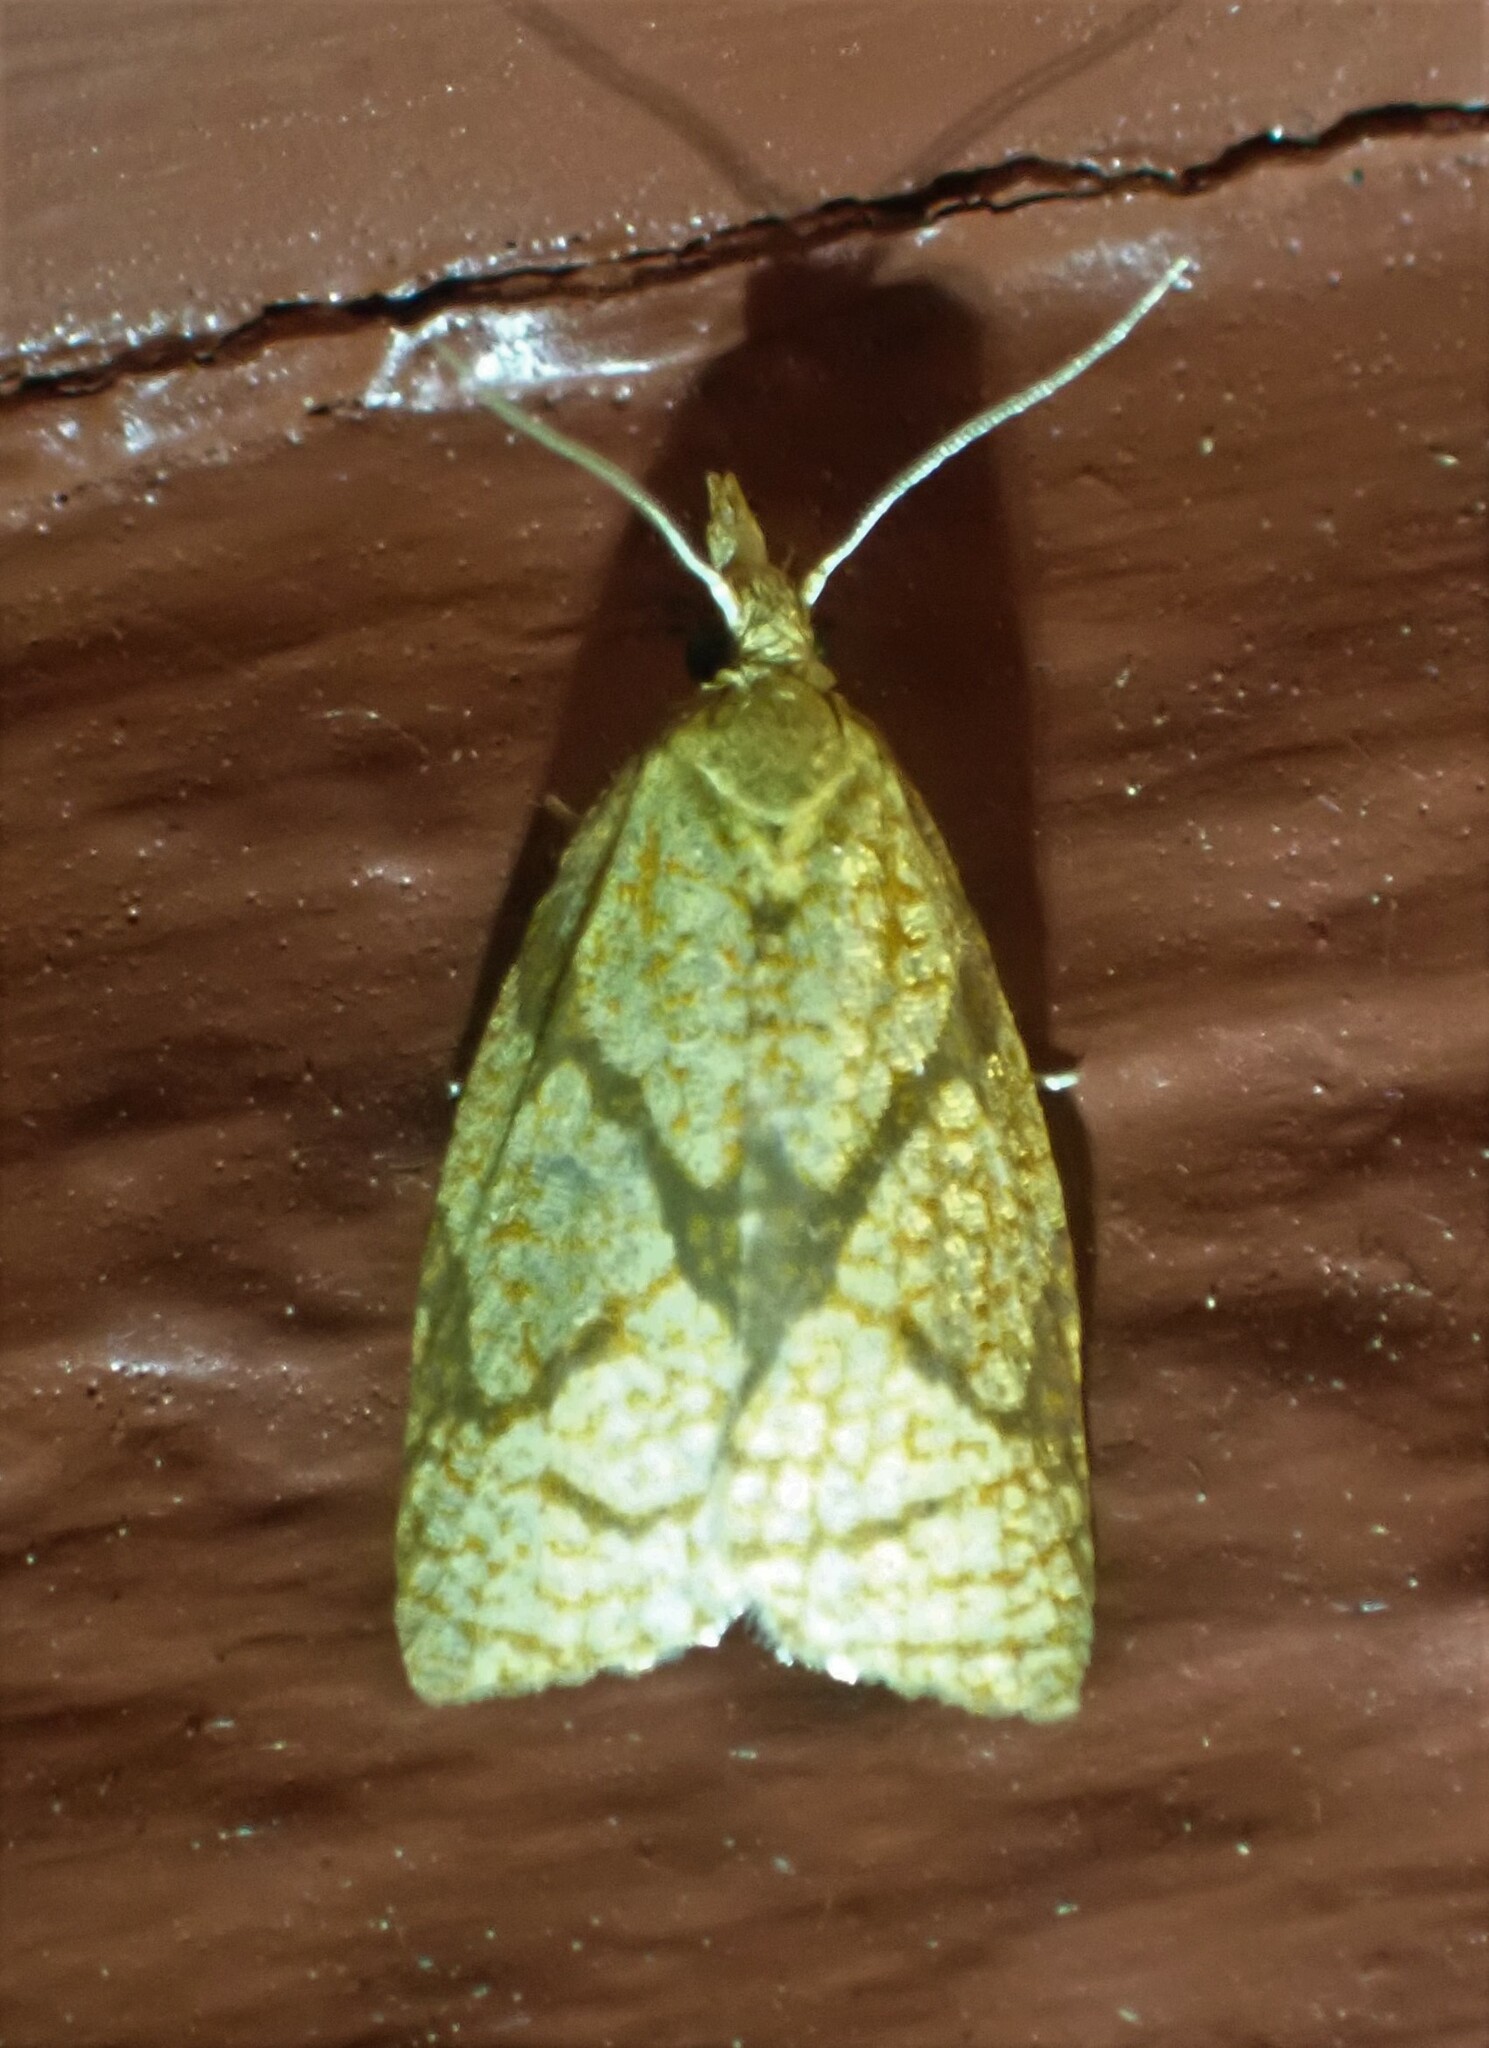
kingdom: Animalia
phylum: Arthropoda
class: Insecta
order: Lepidoptera
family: Tortricidae
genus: Cenopis
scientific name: Cenopis reticulatana
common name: Reticulated fruitworm moth
